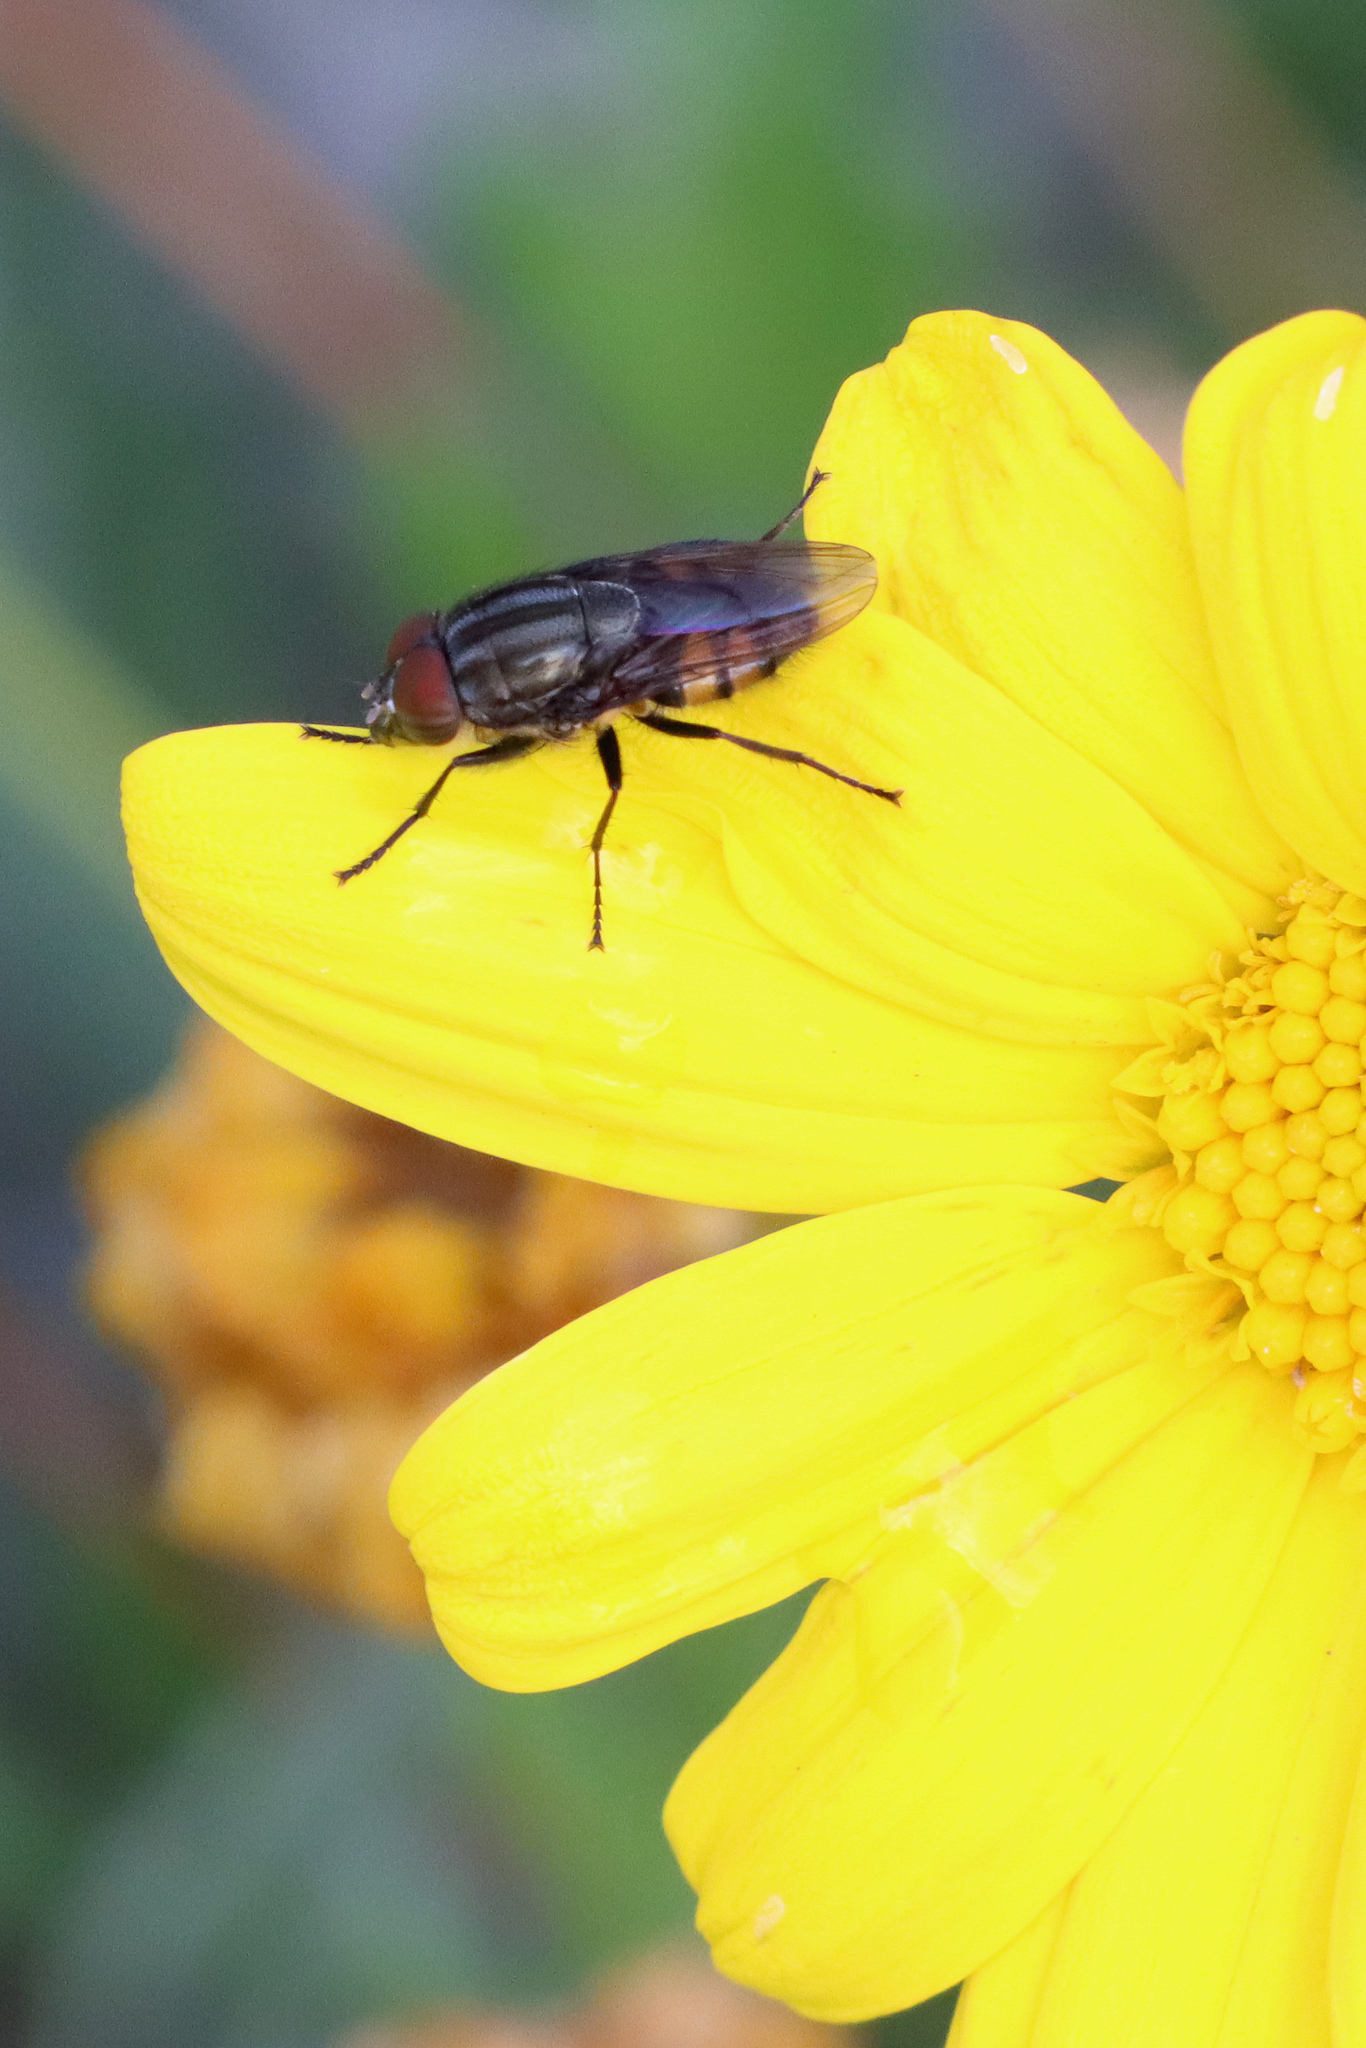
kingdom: Animalia
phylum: Arthropoda
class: Insecta
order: Diptera
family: Calliphoridae
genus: Stomorhina
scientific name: Stomorhina lunata
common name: Locust blowfly
